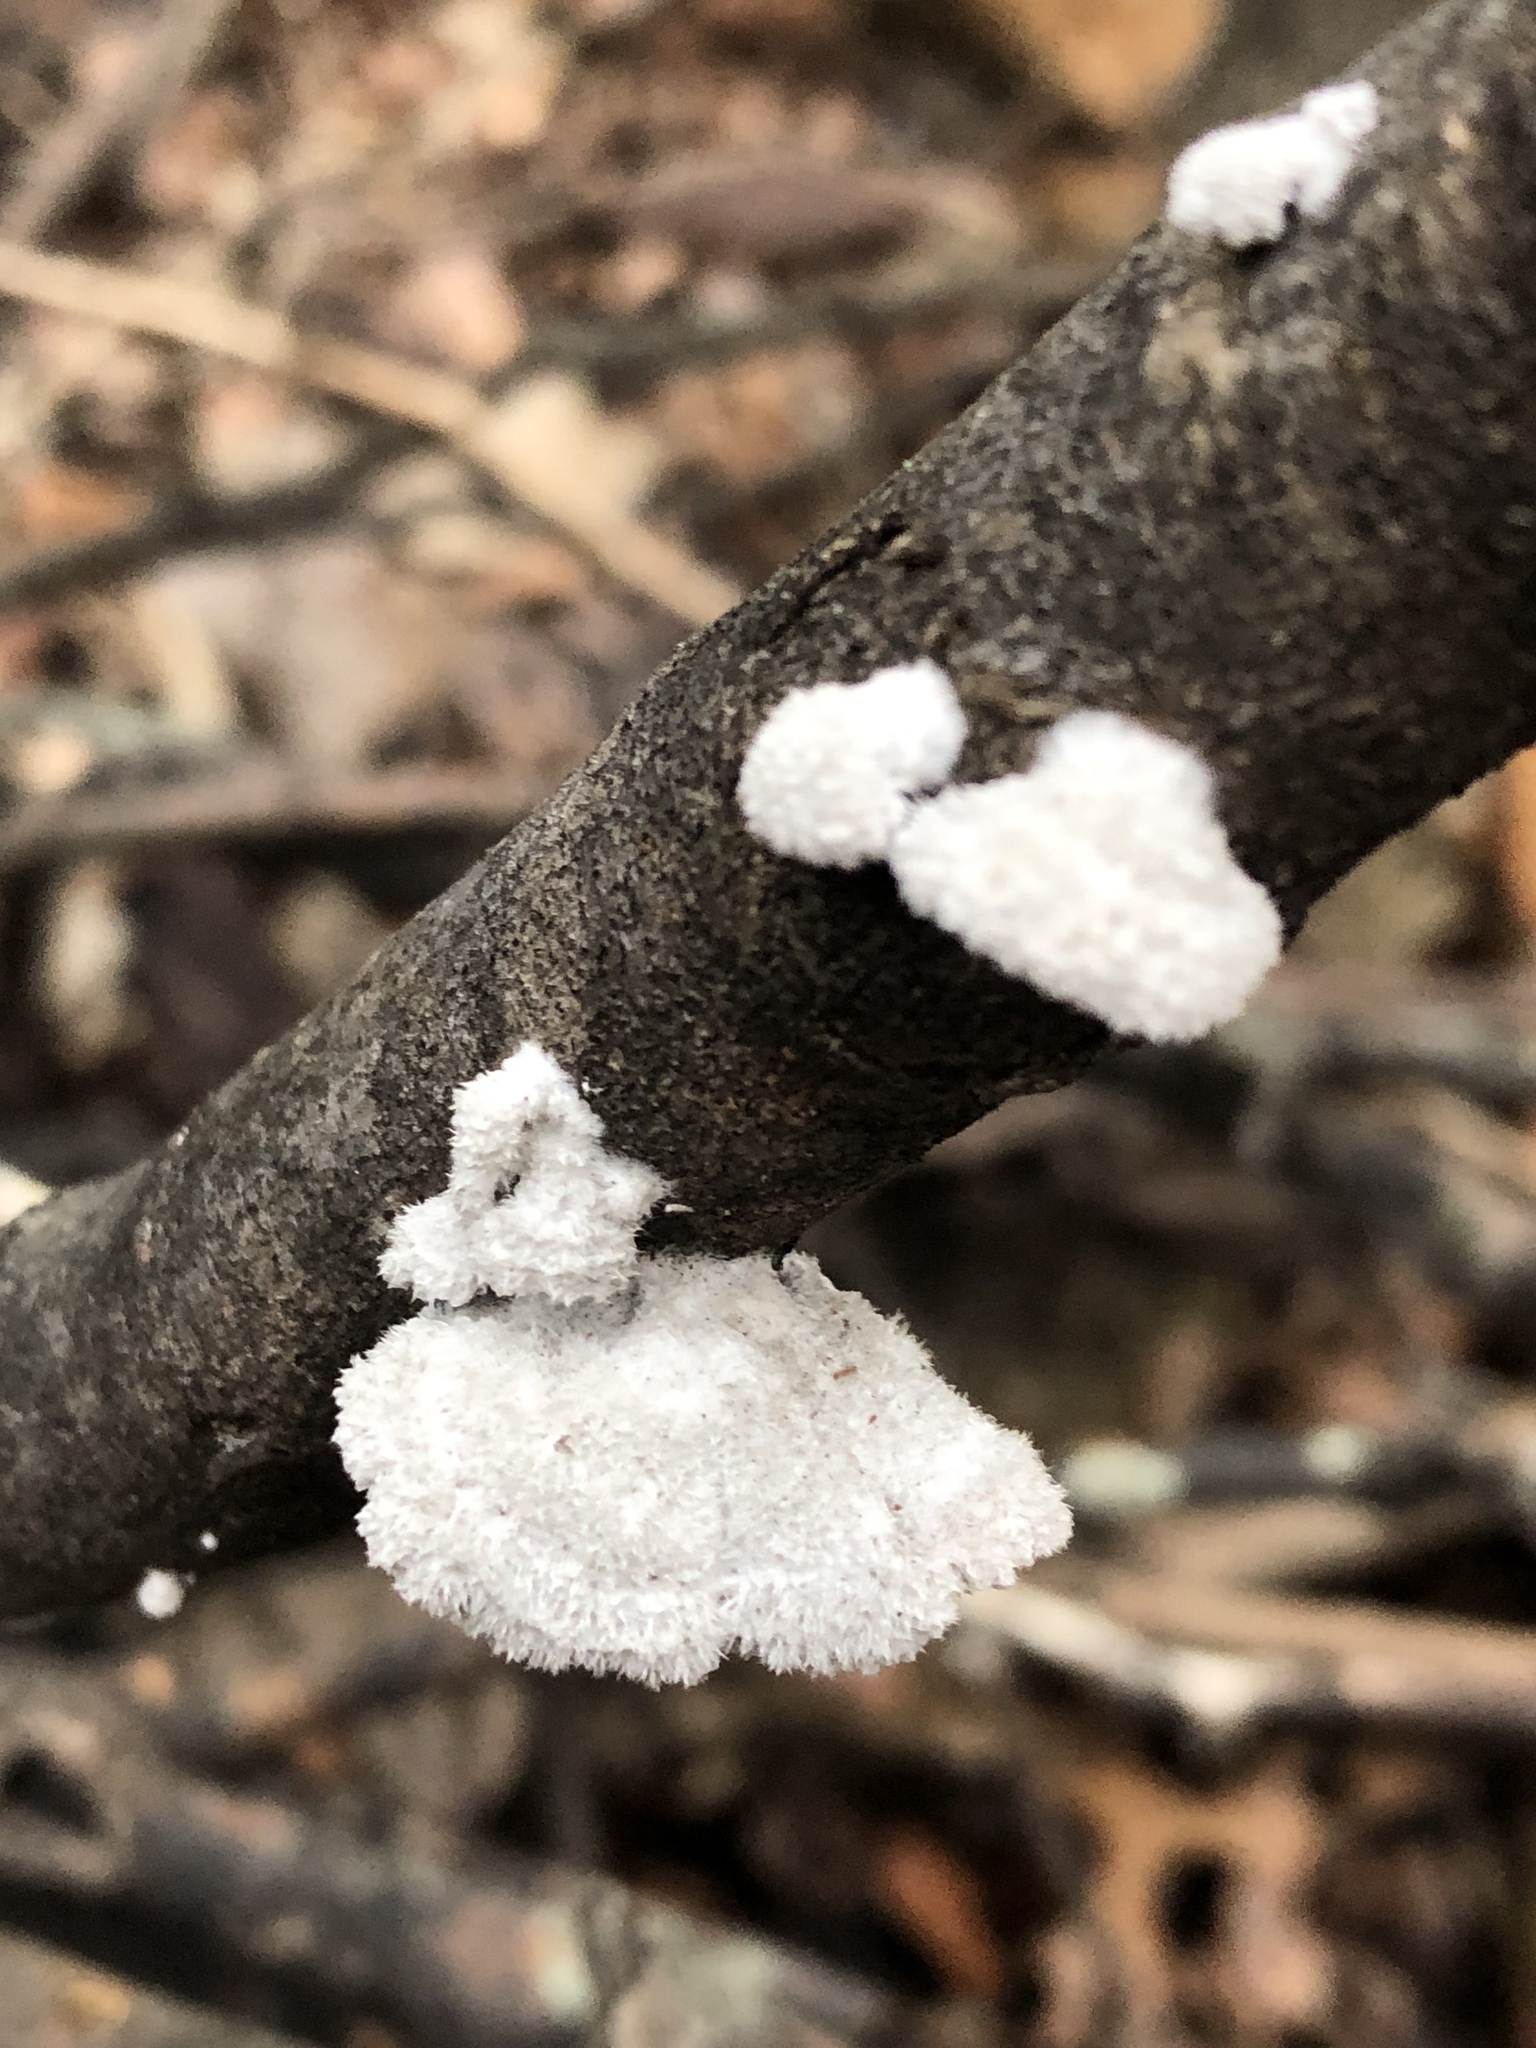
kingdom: Fungi
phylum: Basidiomycota
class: Agaricomycetes
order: Agaricales
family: Schizophyllaceae
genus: Schizophyllum
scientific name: Schizophyllum commune
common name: Common porecrust
